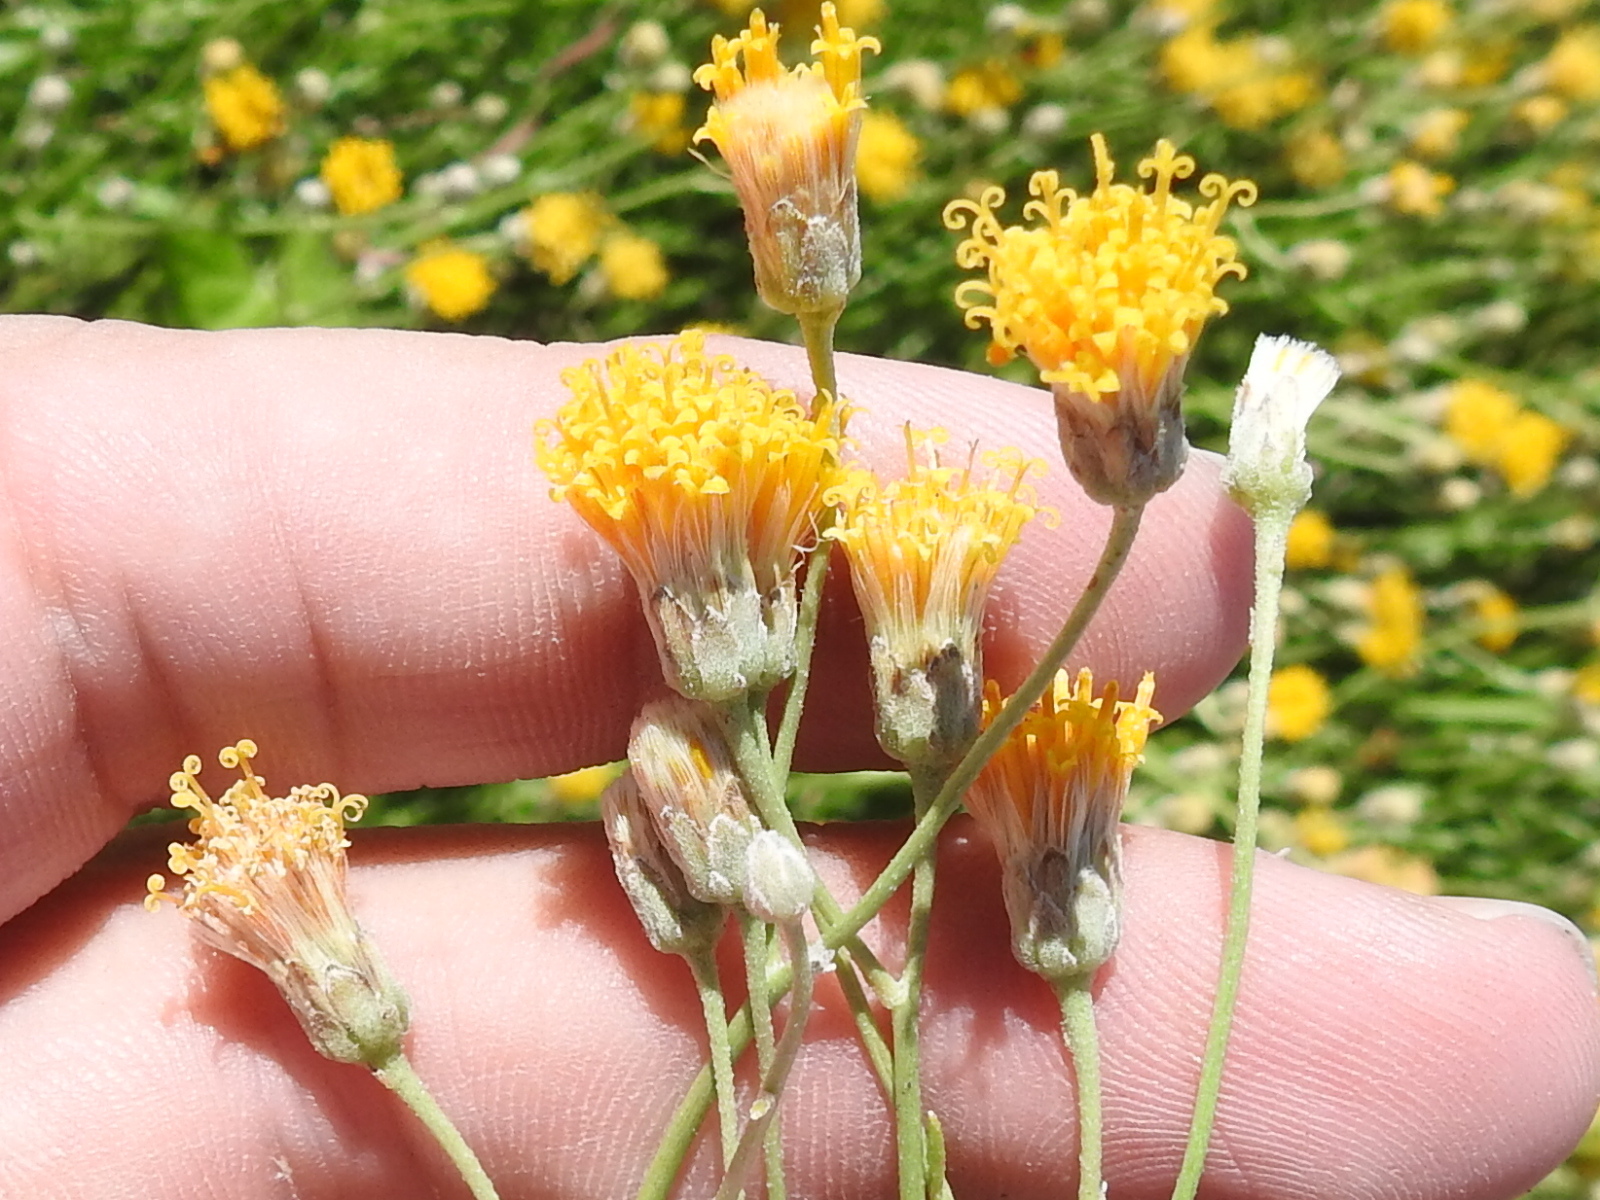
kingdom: Plantae
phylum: Tracheophyta
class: Magnoliopsida
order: Asterales
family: Asteraceae
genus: Bebbia
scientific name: Bebbia juncea
